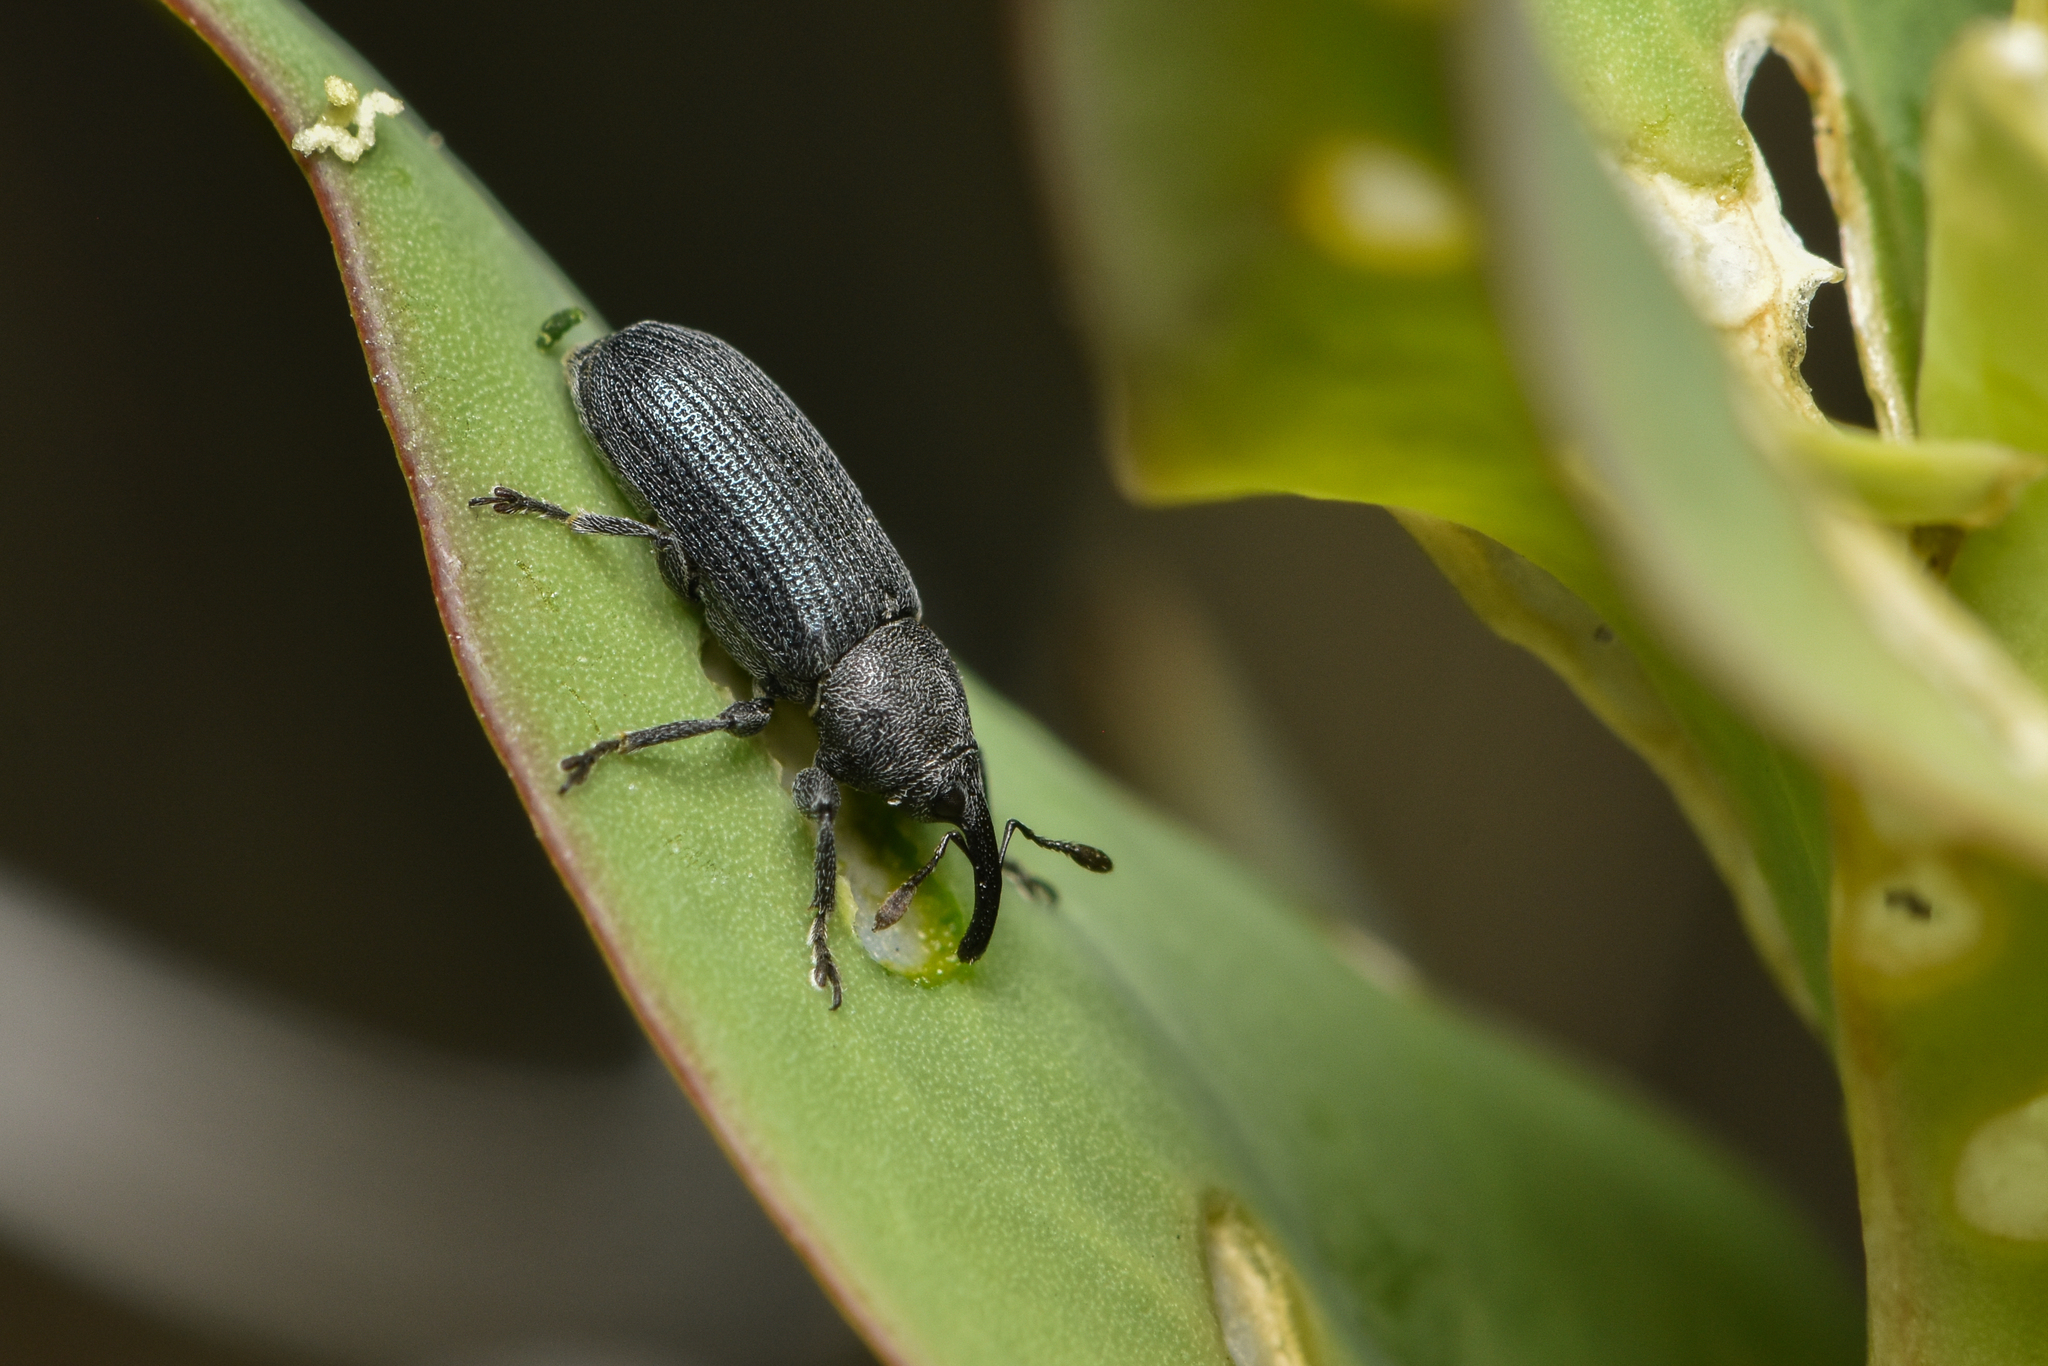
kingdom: Animalia
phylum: Arthropoda
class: Insecta
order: Coleoptera
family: Curculionidae
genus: Mecinus
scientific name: Mecinus janthiniformis
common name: Dalmatian toadflax stem weevil
